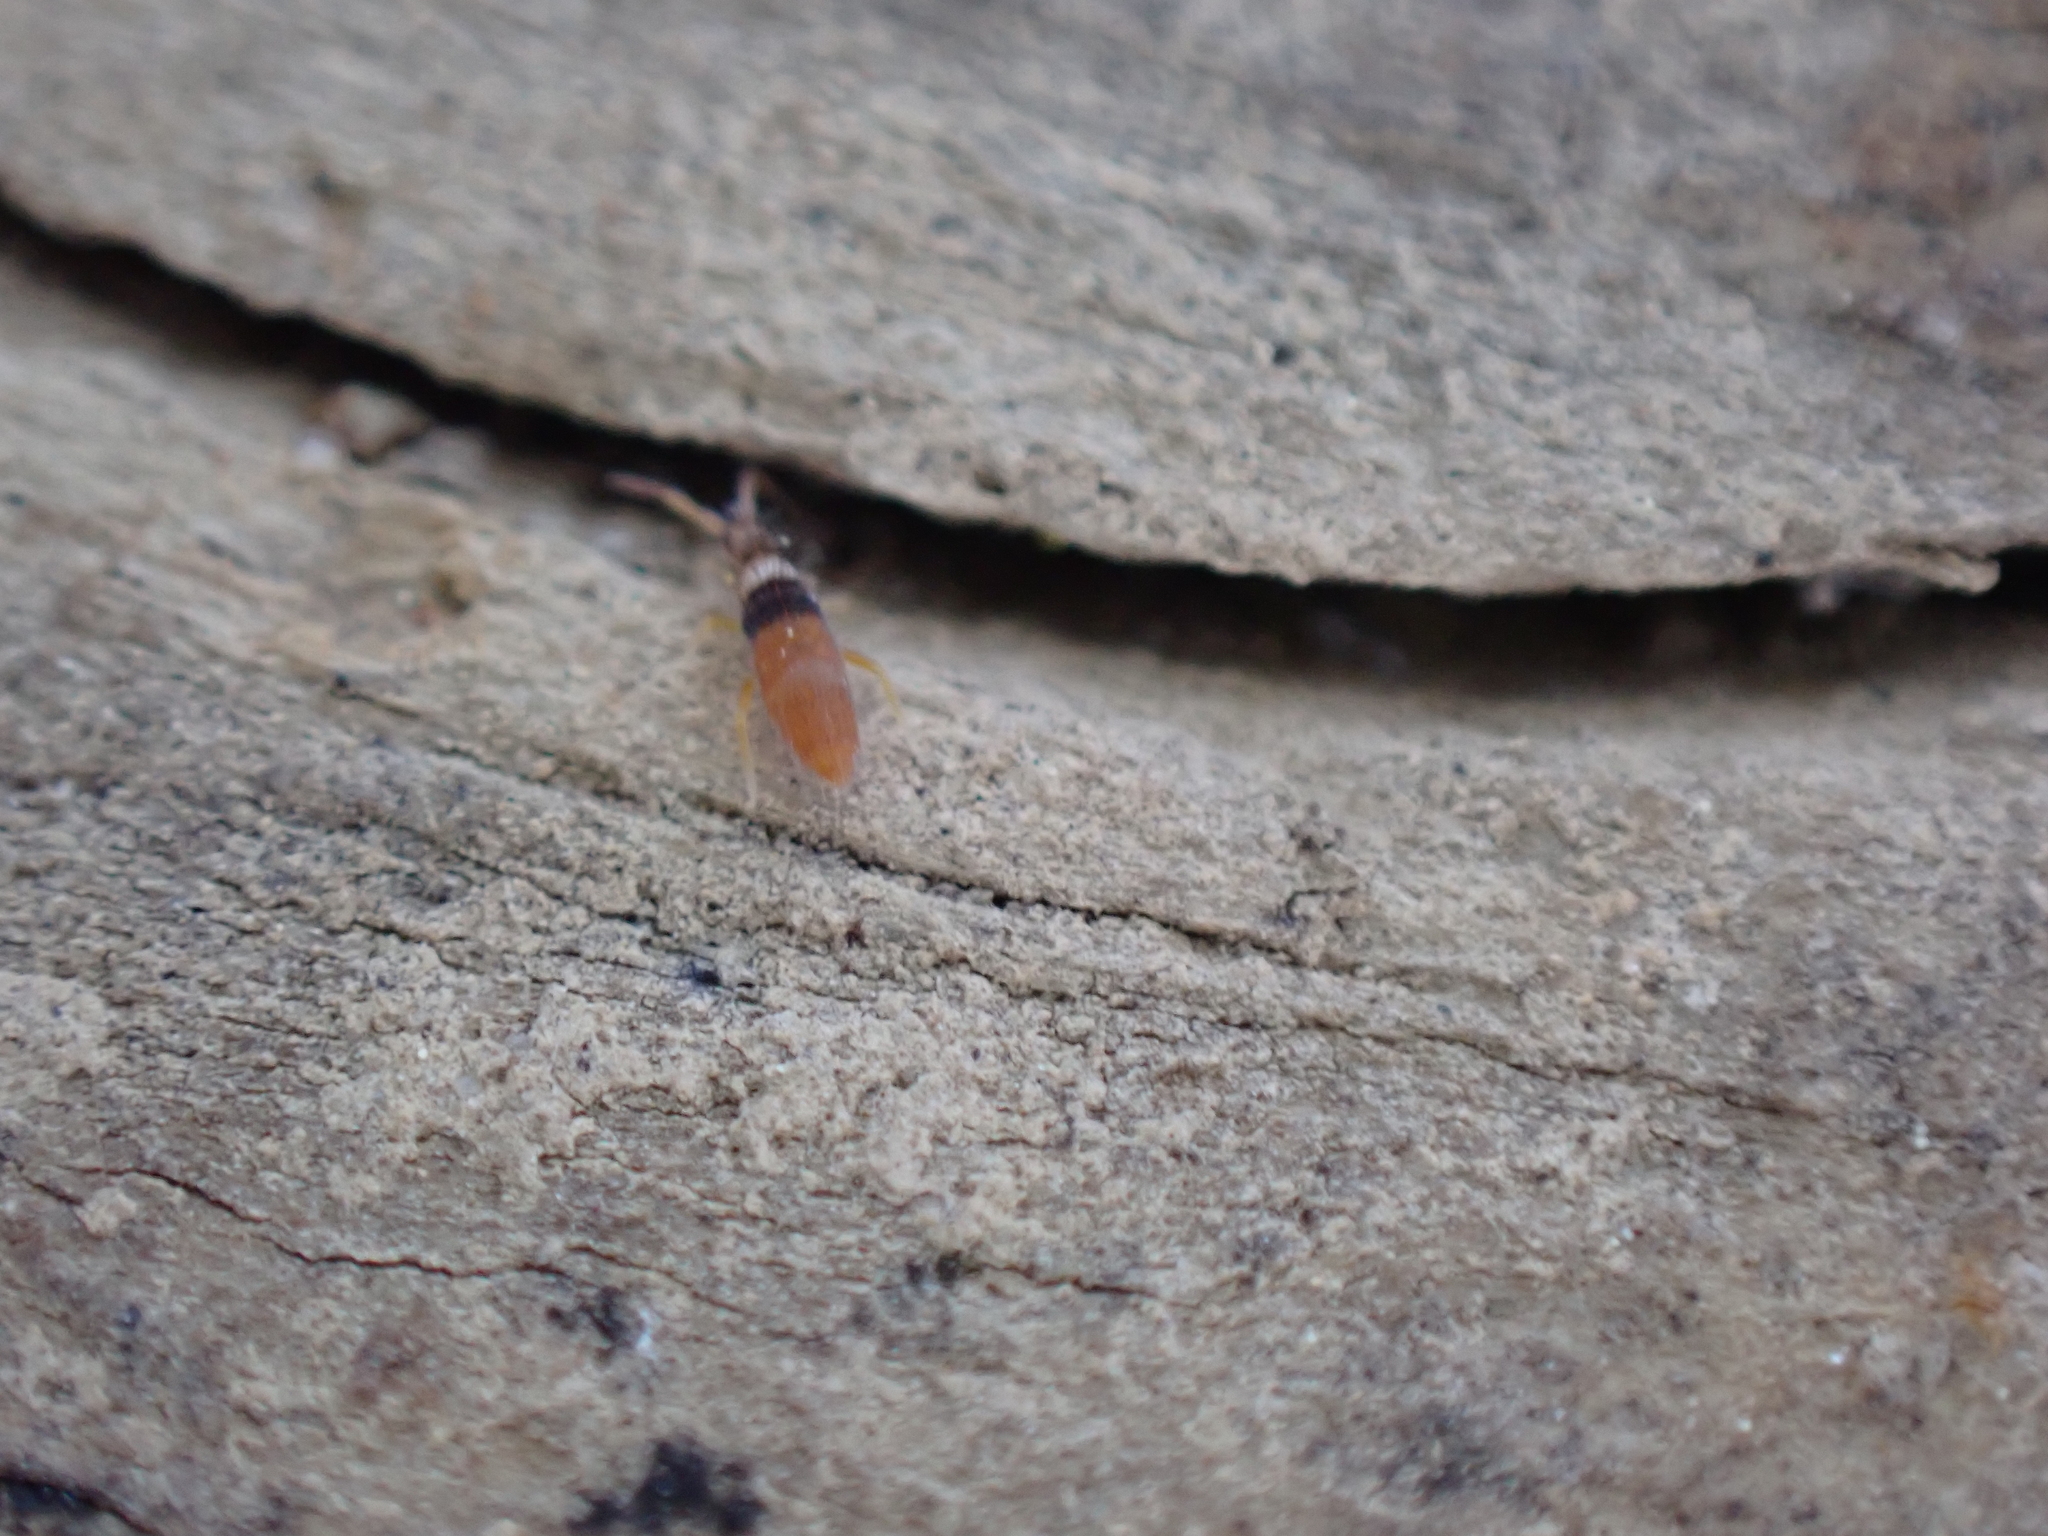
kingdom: Animalia
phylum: Arthropoda
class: Collembola
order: Entomobryomorpha
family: Entomobryidae
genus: Entomobrya
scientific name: Entomobrya atrocincta
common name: Springtail
